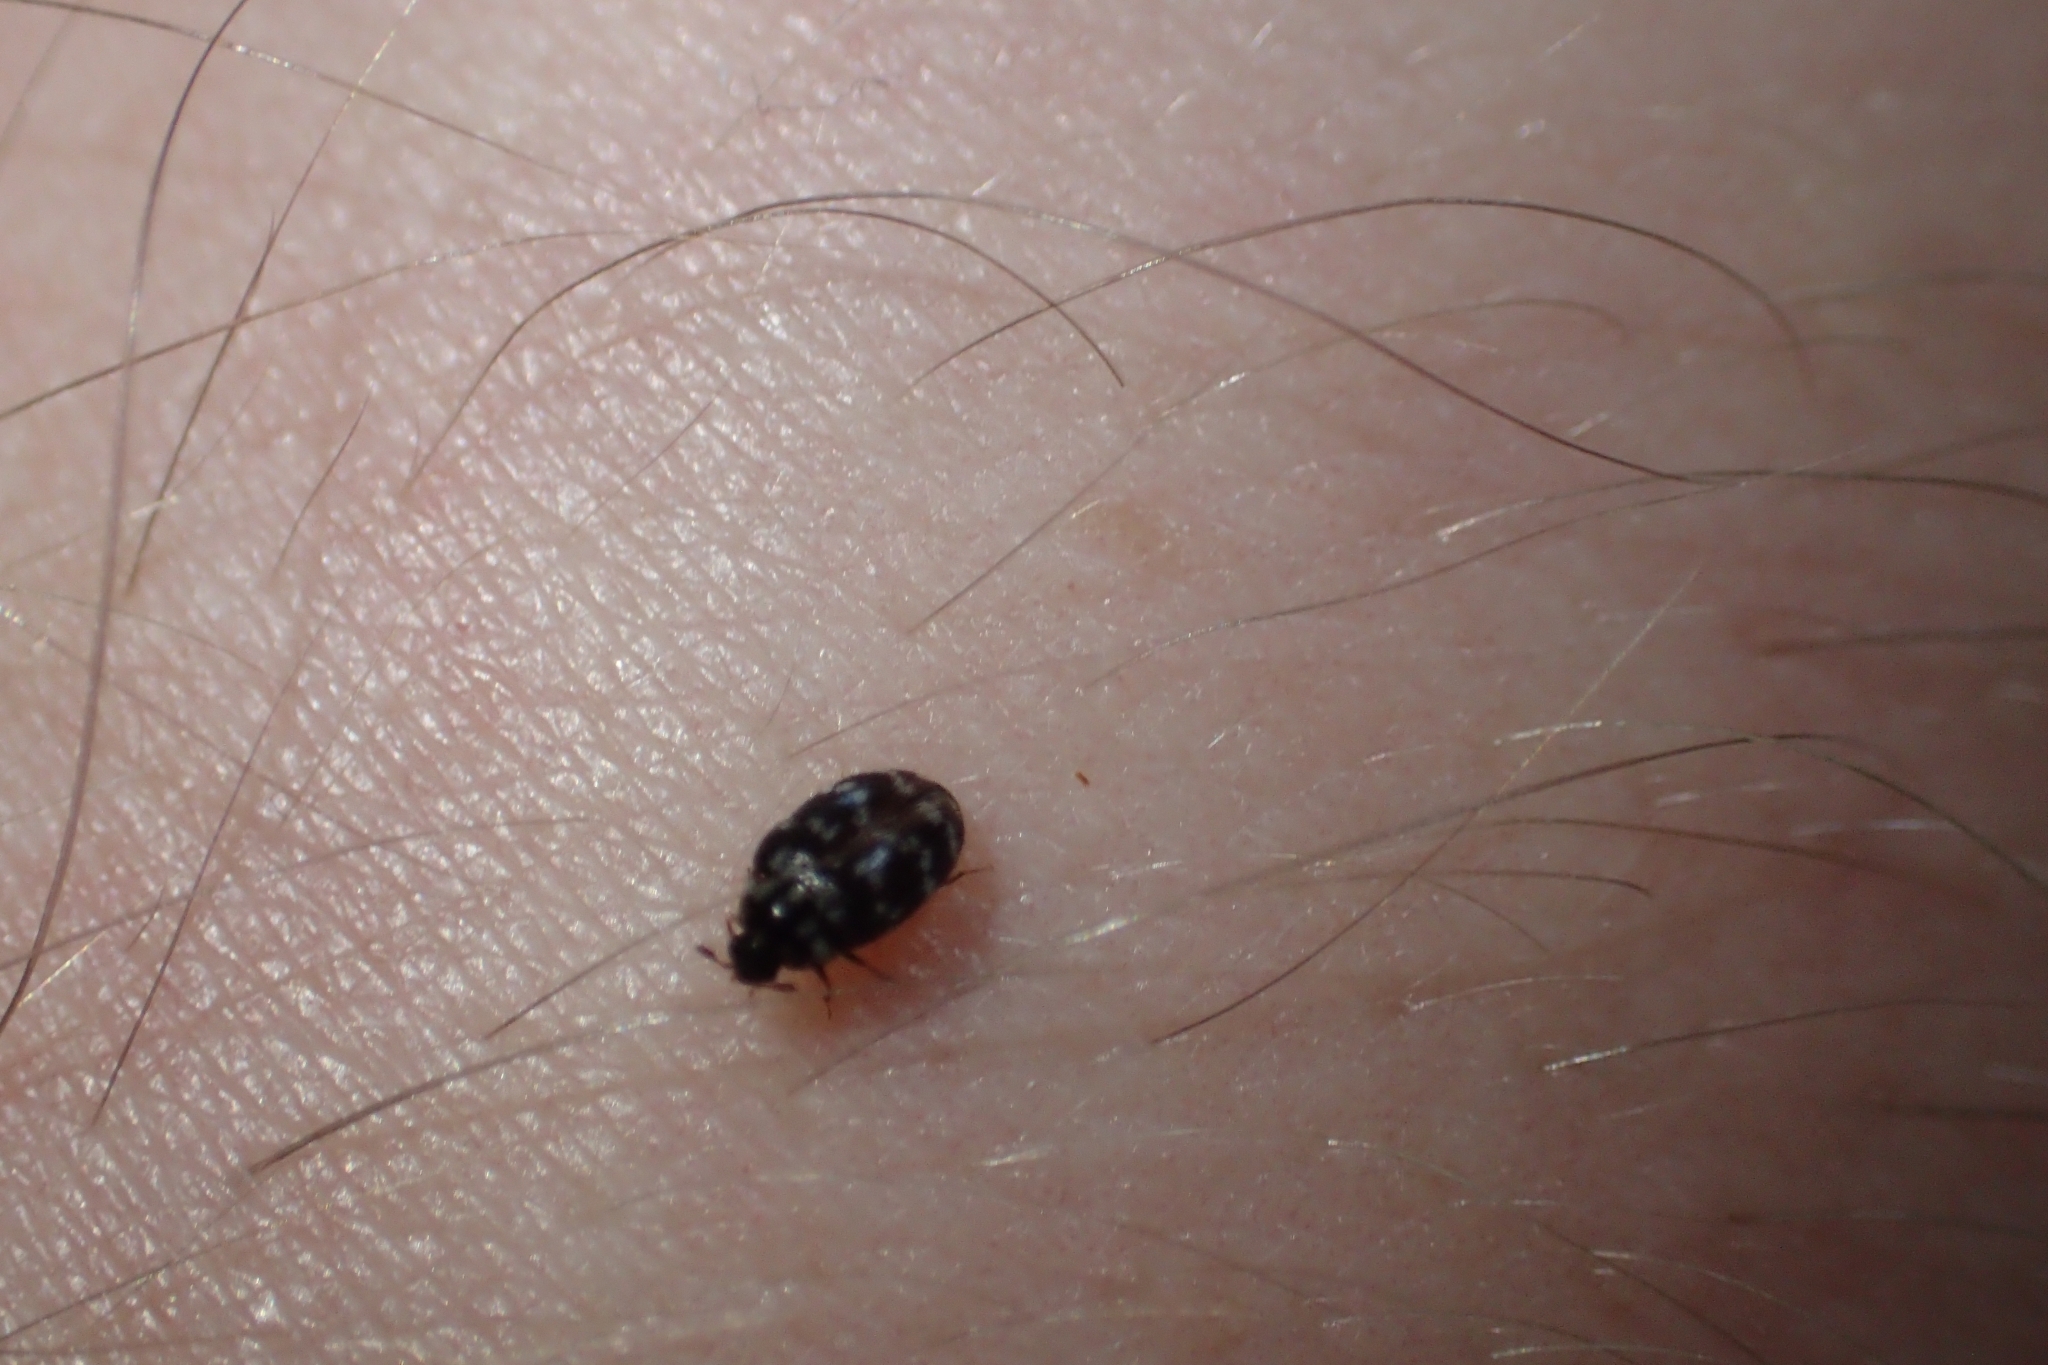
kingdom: Animalia
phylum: Arthropoda
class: Insecta
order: Coleoptera
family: Dermestidae
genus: Anthrenocerus
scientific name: Anthrenocerus australis
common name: Australian carpet beetle
